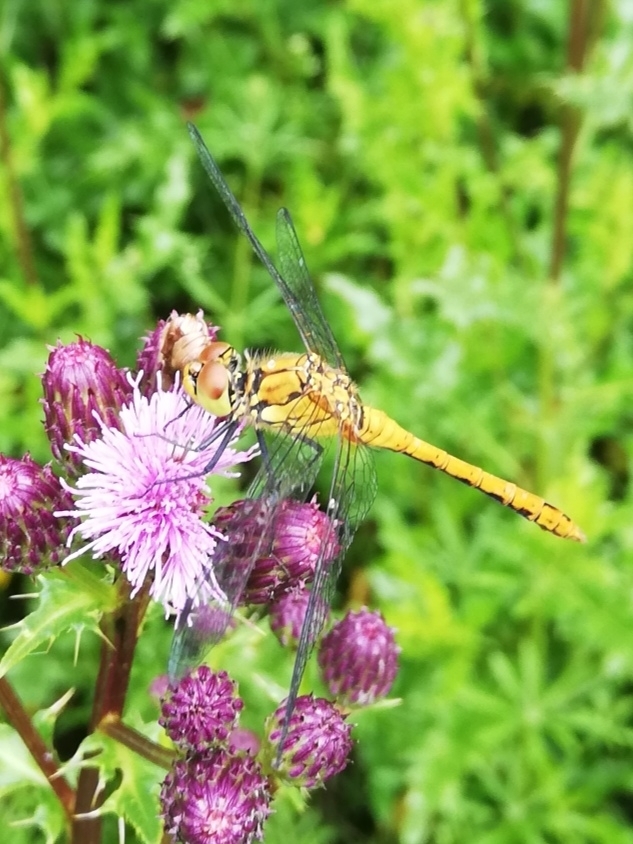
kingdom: Animalia
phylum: Arthropoda
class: Insecta
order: Odonata
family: Libellulidae
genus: Sympetrum
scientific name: Sympetrum sanguineum
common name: Ruddy darter
